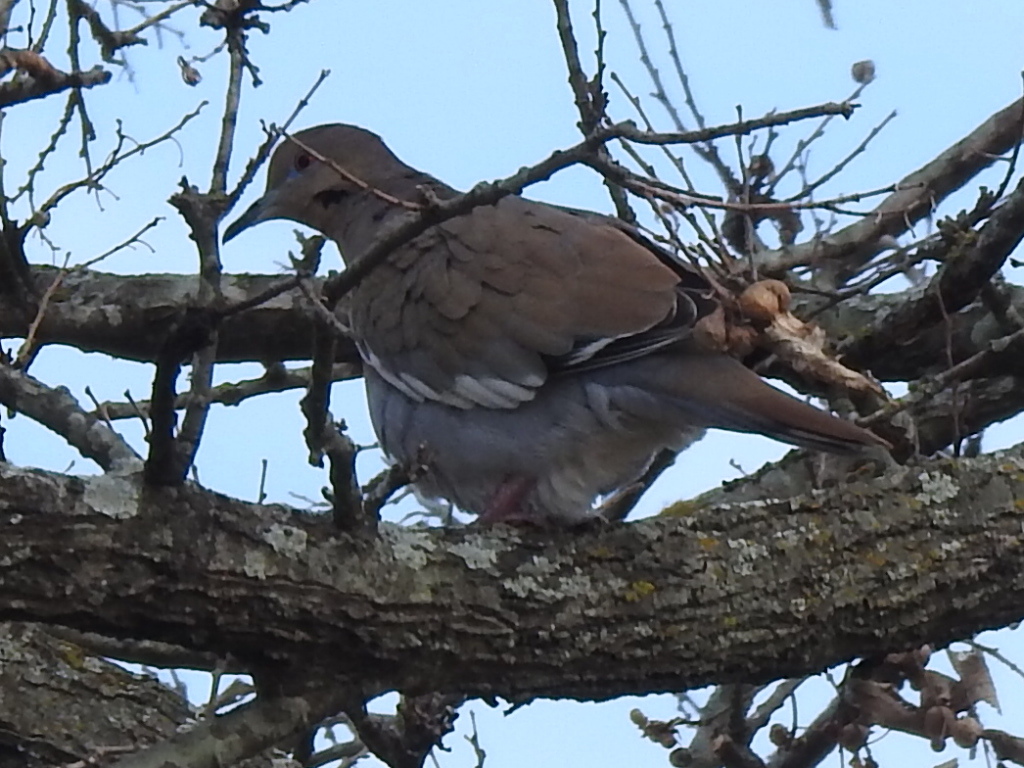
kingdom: Animalia
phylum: Chordata
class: Aves
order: Columbiformes
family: Columbidae
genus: Zenaida
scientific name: Zenaida asiatica
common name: White-winged dove
